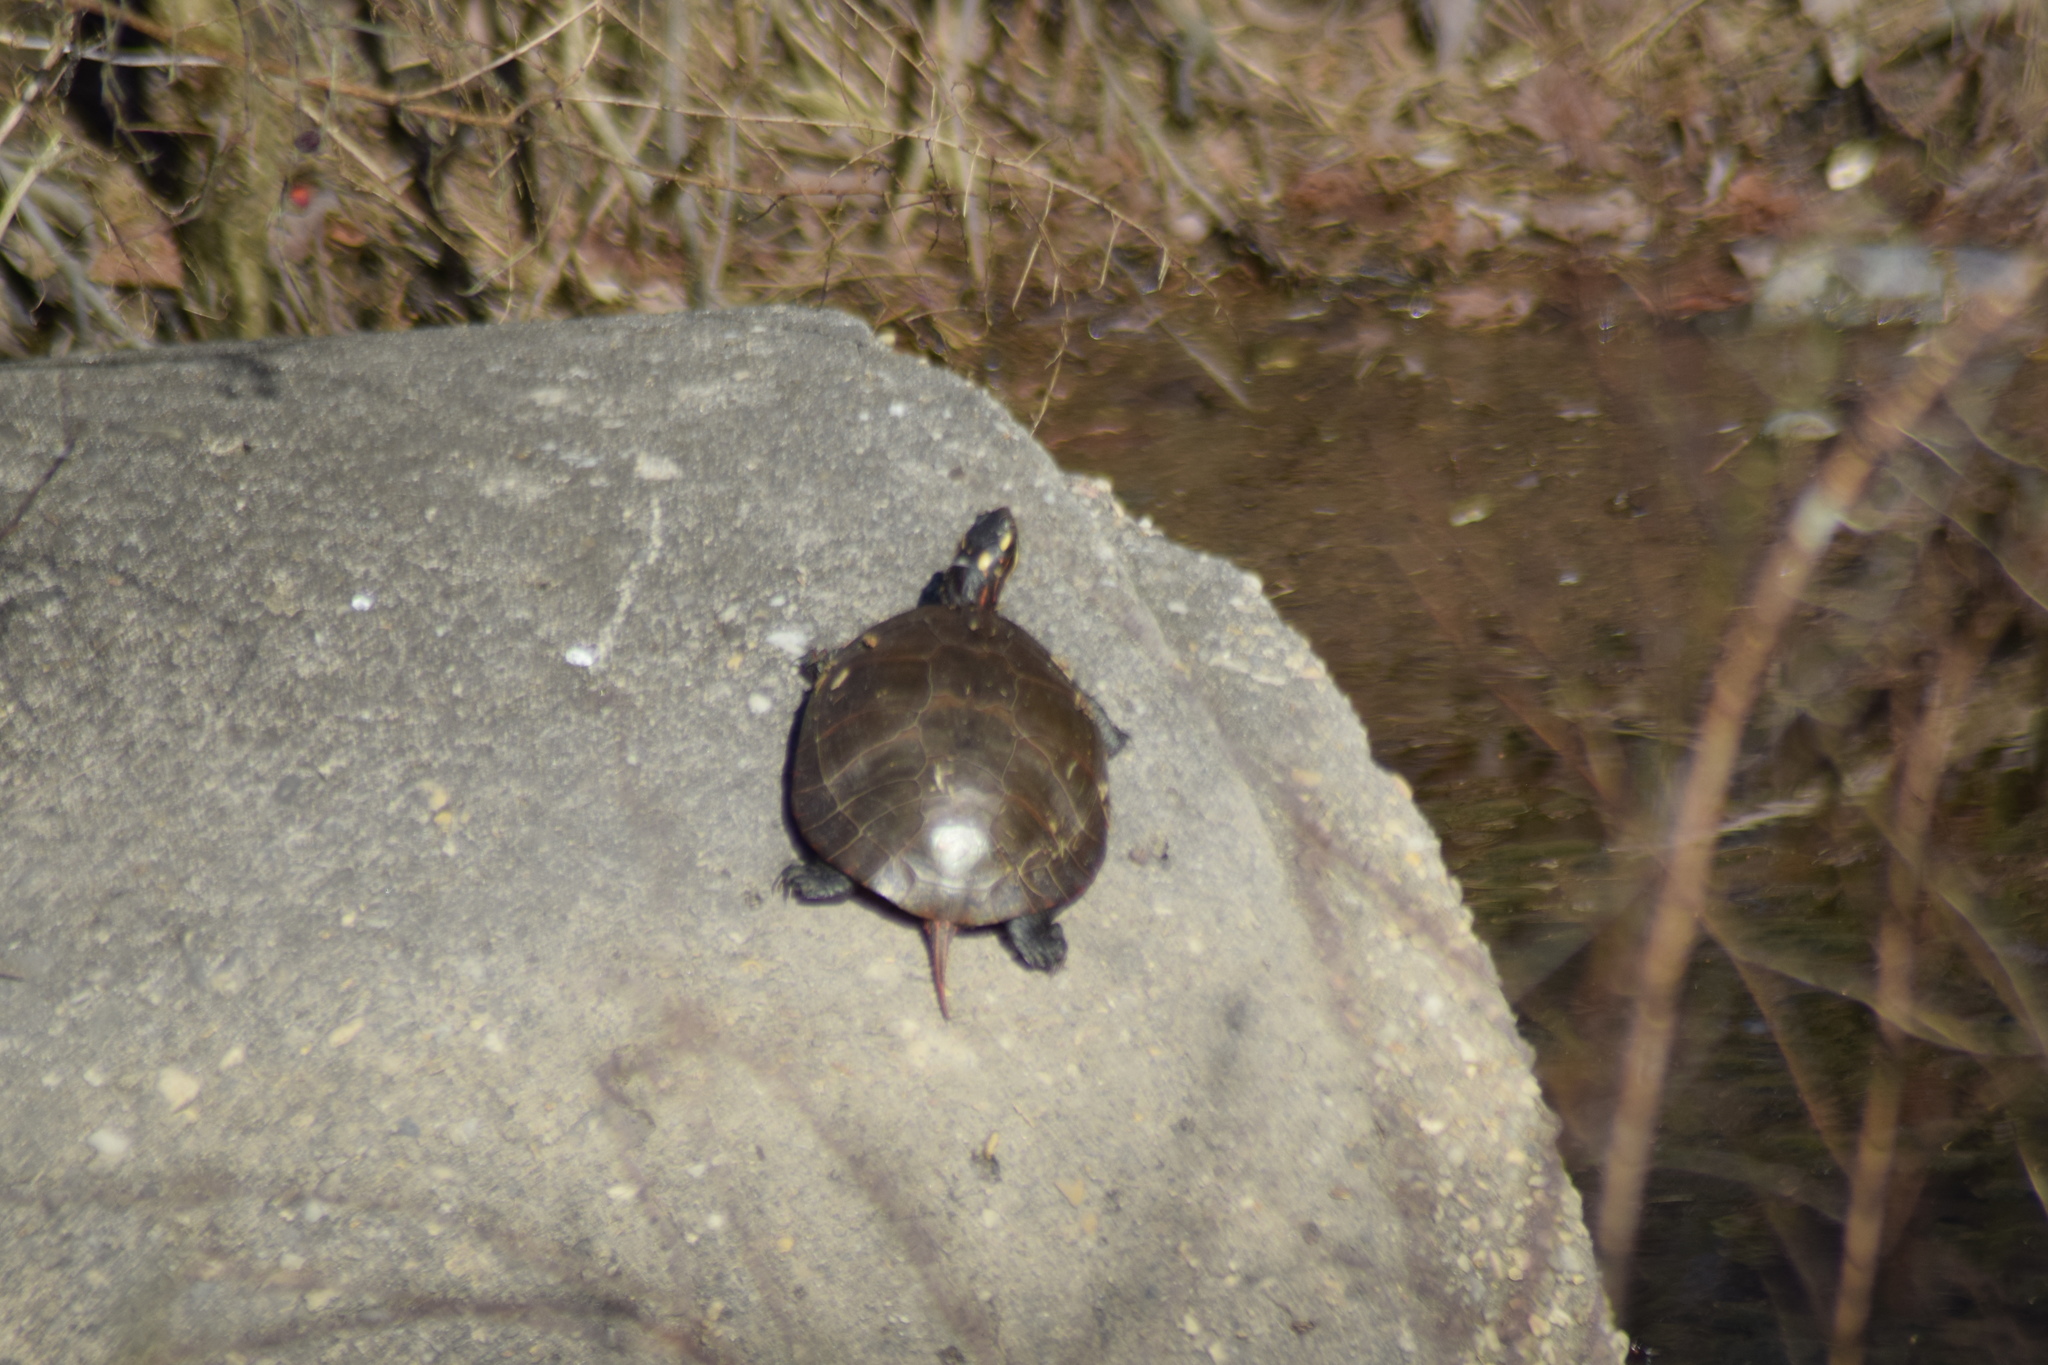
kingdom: Animalia
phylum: Chordata
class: Testudines
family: Emydidae
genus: Chrysemys
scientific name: Chrysemys picta
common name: Painted turtle
